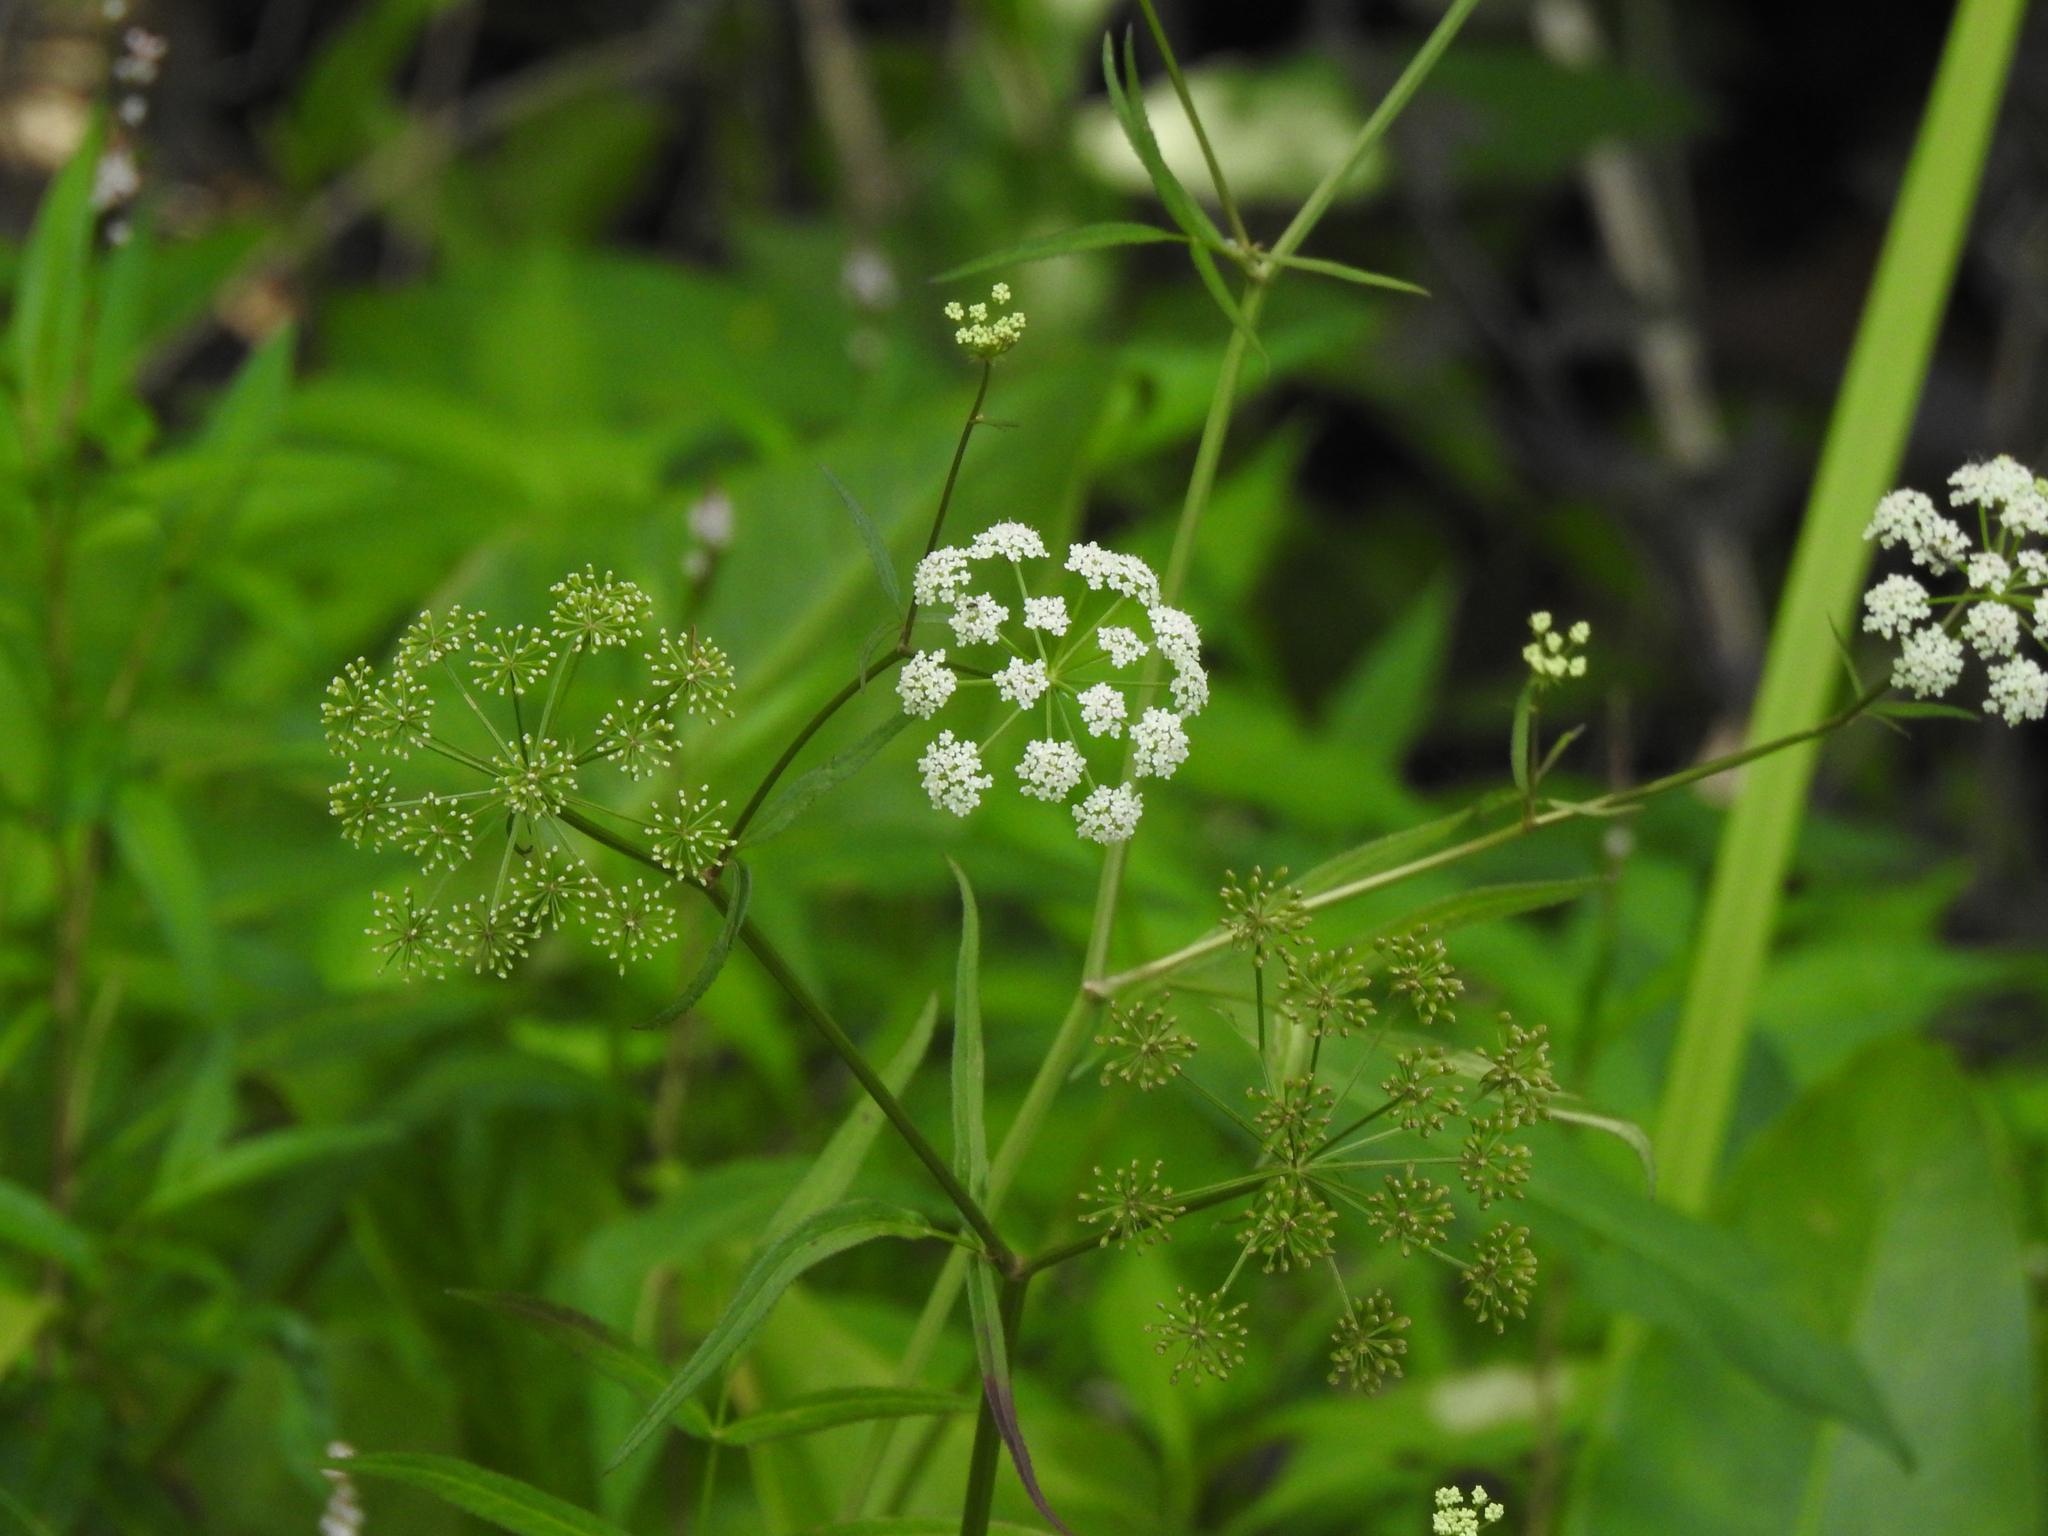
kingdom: Plantae
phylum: Tracheophyta
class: Magnoliopsida
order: Apiales
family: Apiaceae
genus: Cicuta
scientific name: Cicuta maculata
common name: Spotted cowbane
